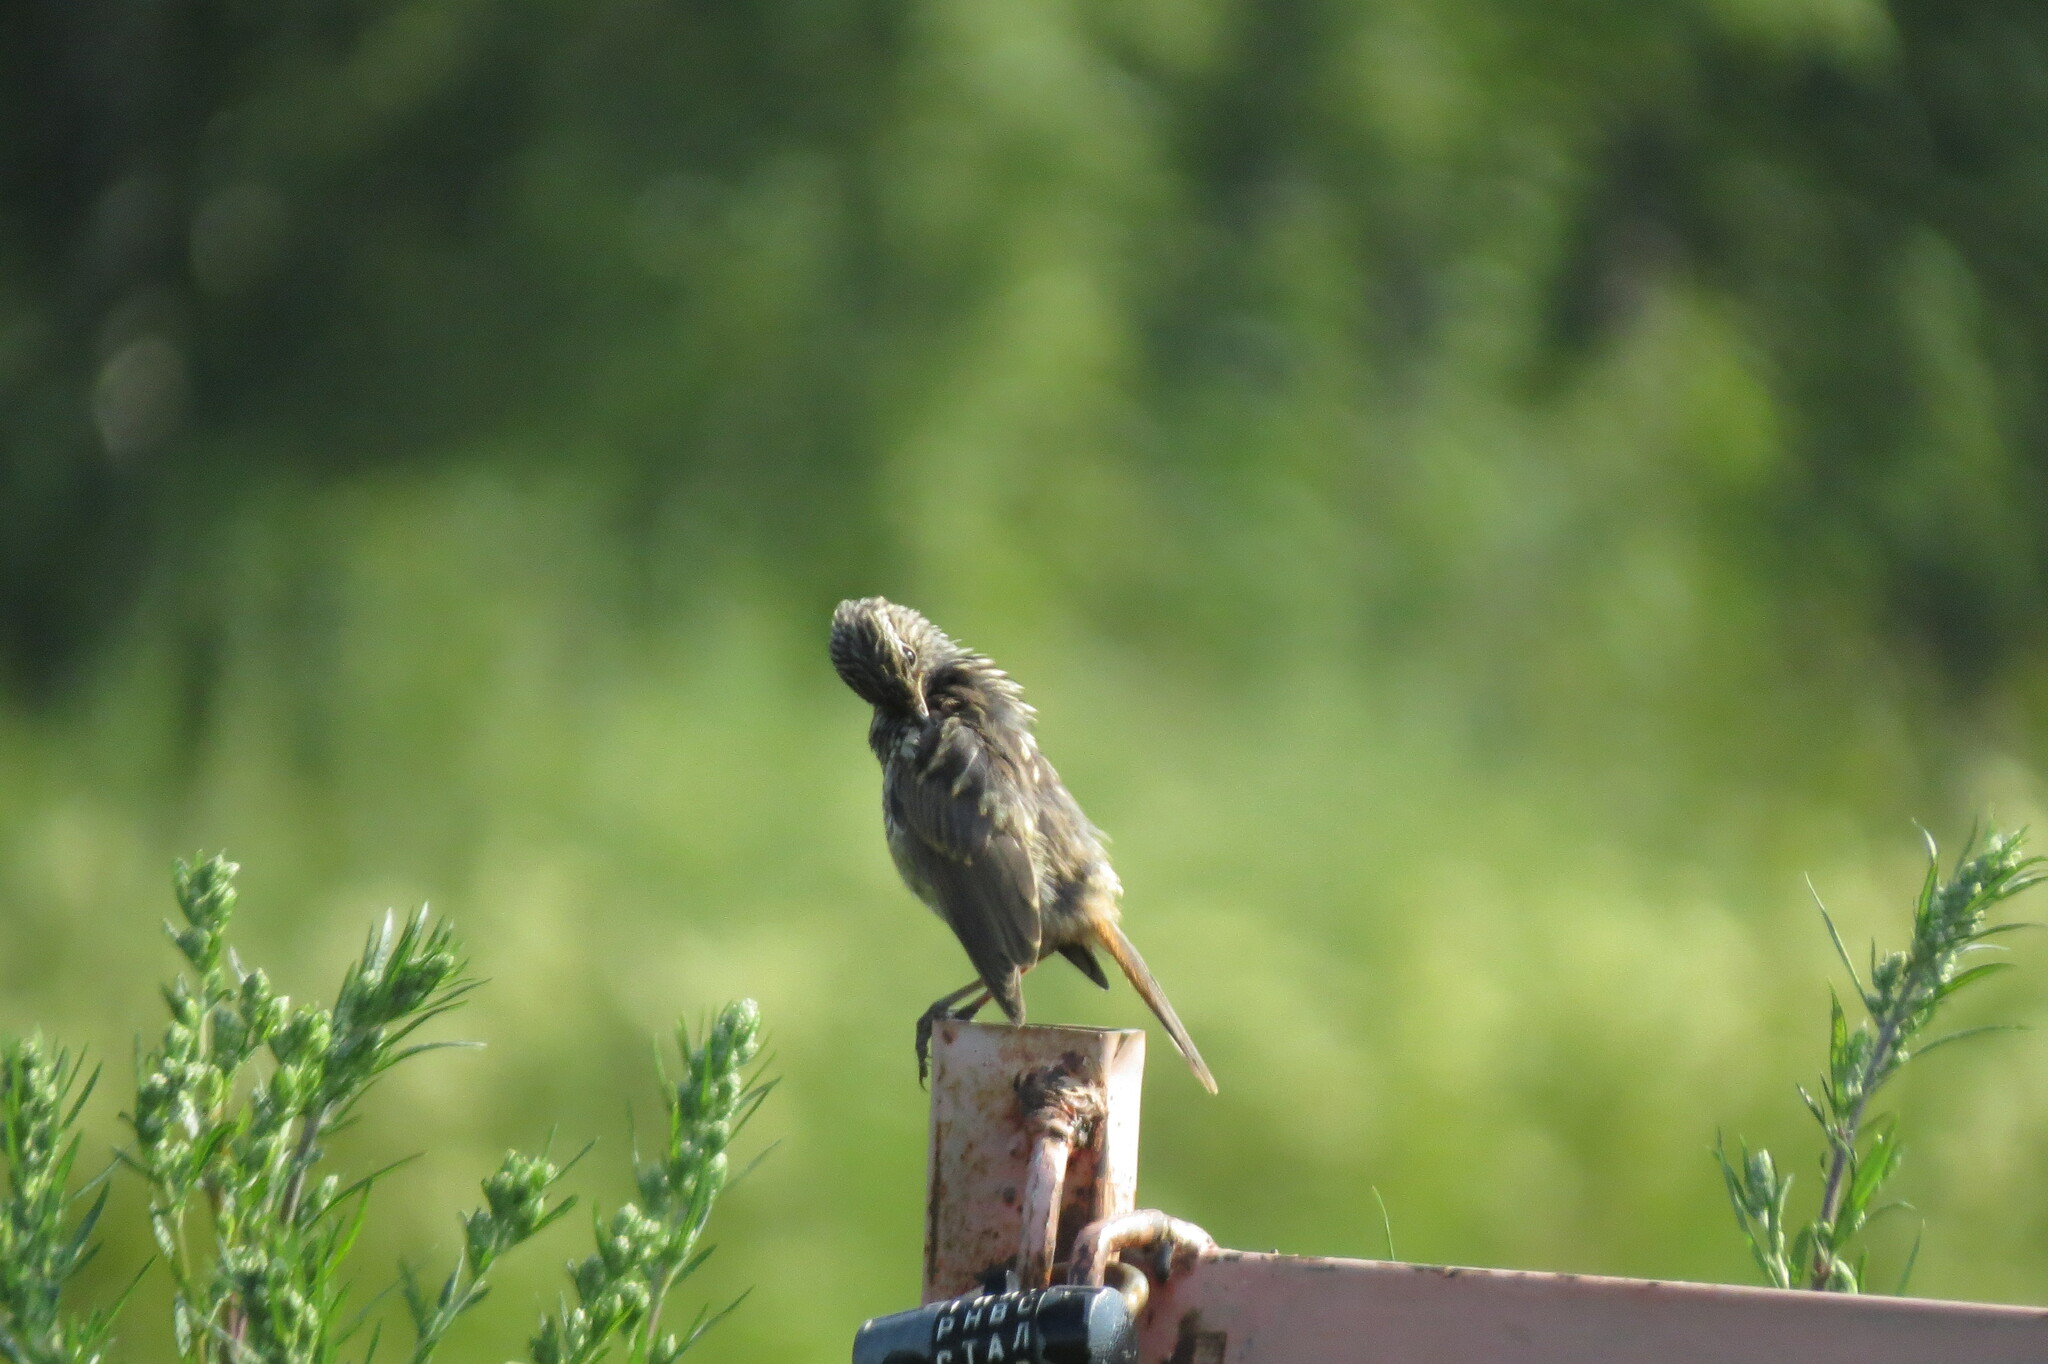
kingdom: Animalia
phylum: Chordata
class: Aves
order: Passeriformes
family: Muscicapidae
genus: Luscinia
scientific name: Luscinia svecica
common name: Bluethroat
